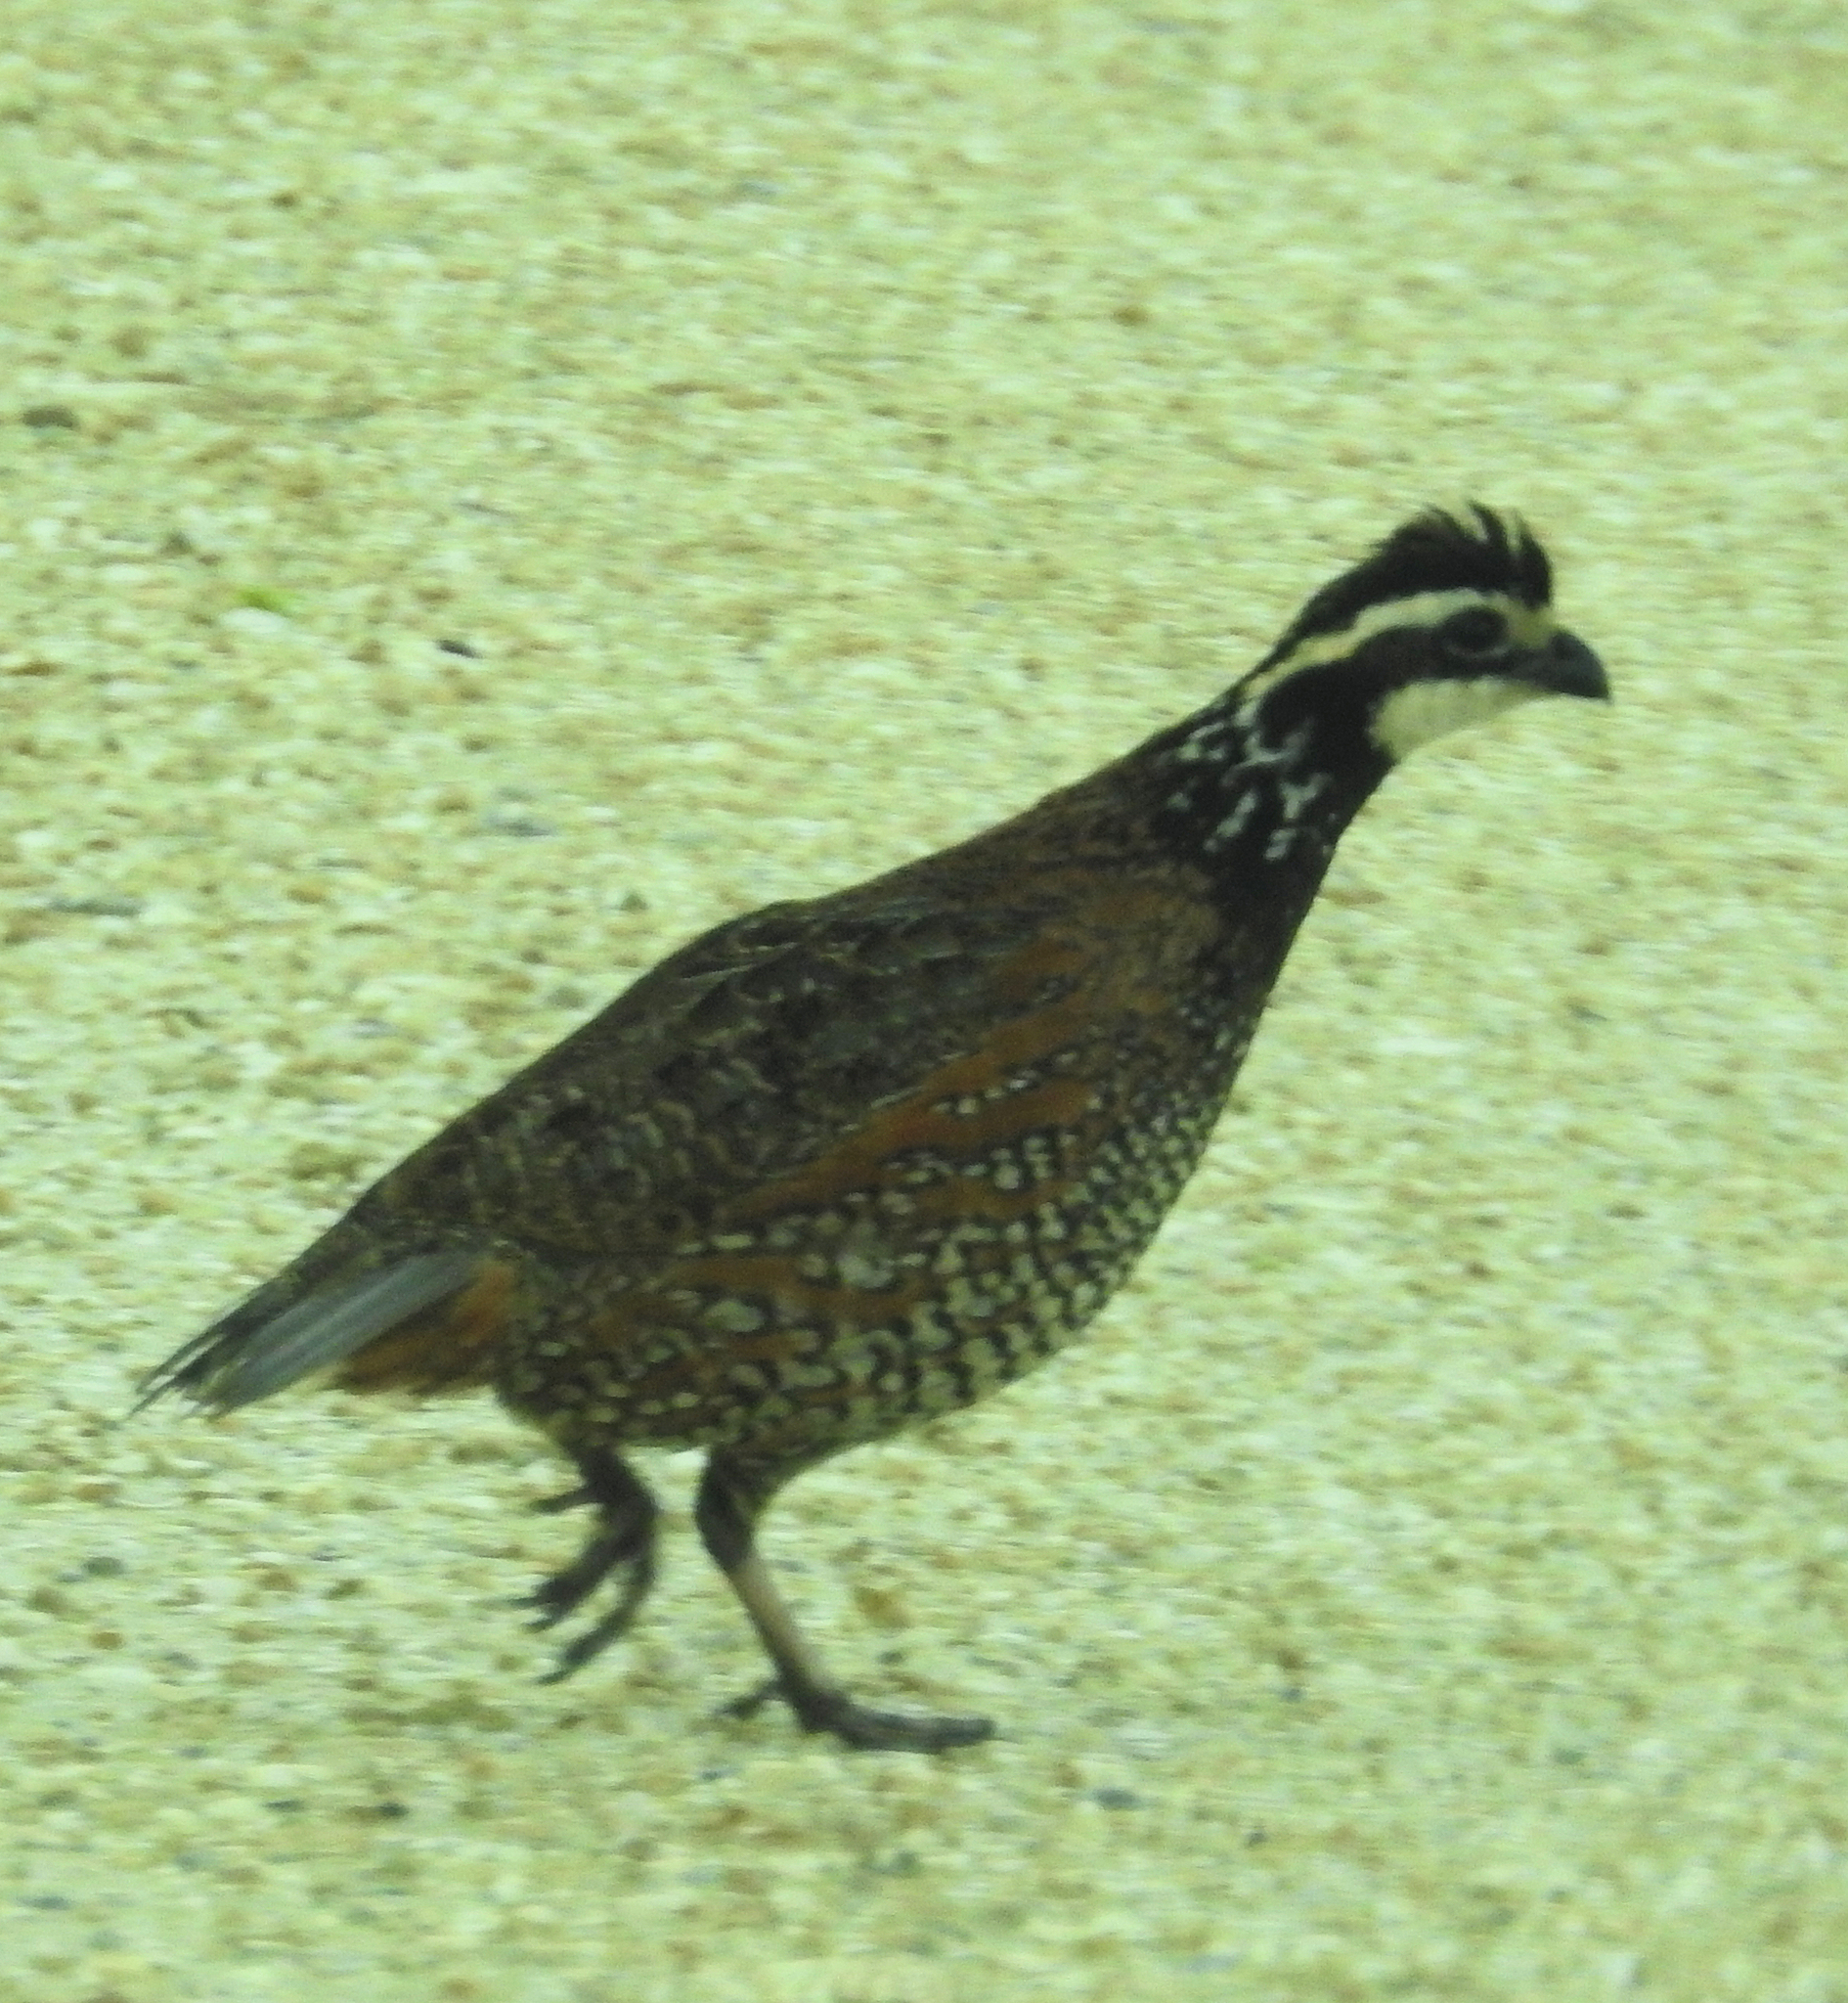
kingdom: Animalia
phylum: Chordata
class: Aves
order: Galliformes
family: Odontophoridae
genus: Colinus
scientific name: Colinus virginianus
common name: Northern bobwhite
